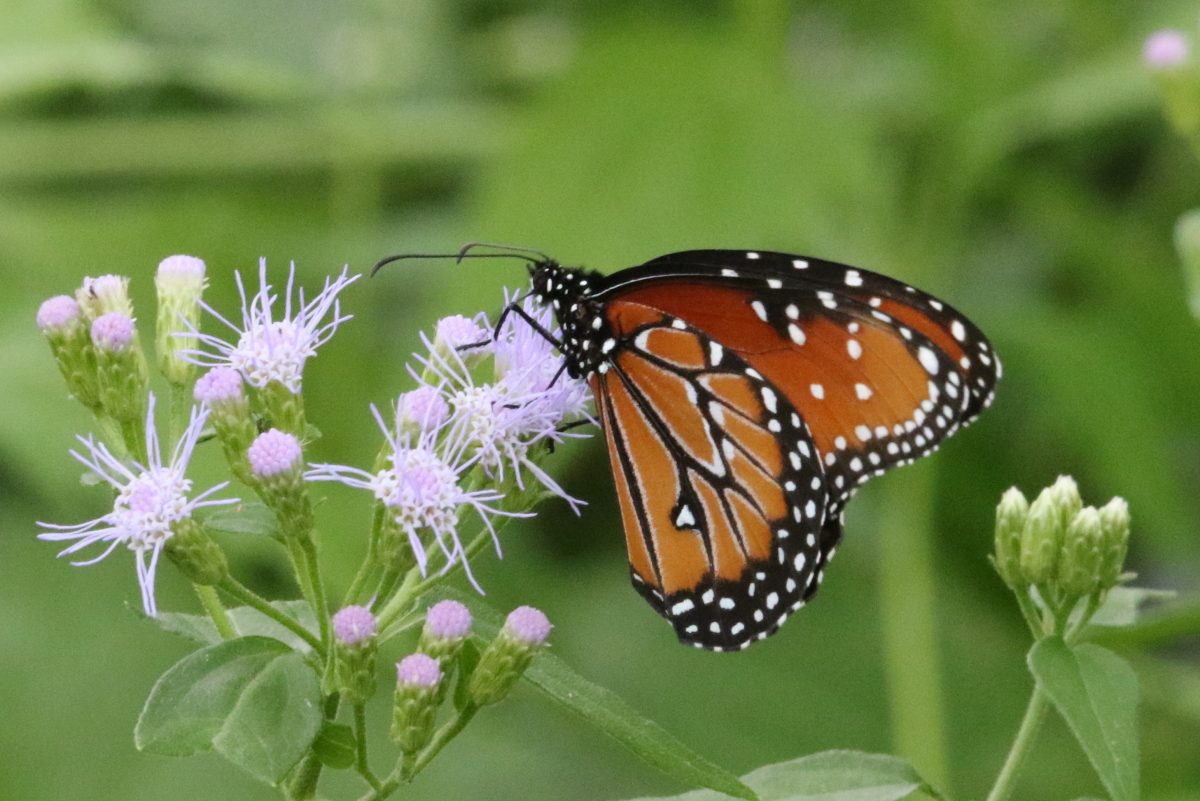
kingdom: Animalia
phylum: Arthropoda
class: Insecta
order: Lepidoptera
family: Nymphalidae
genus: Danaus
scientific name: Danaus gilippus
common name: Queen
